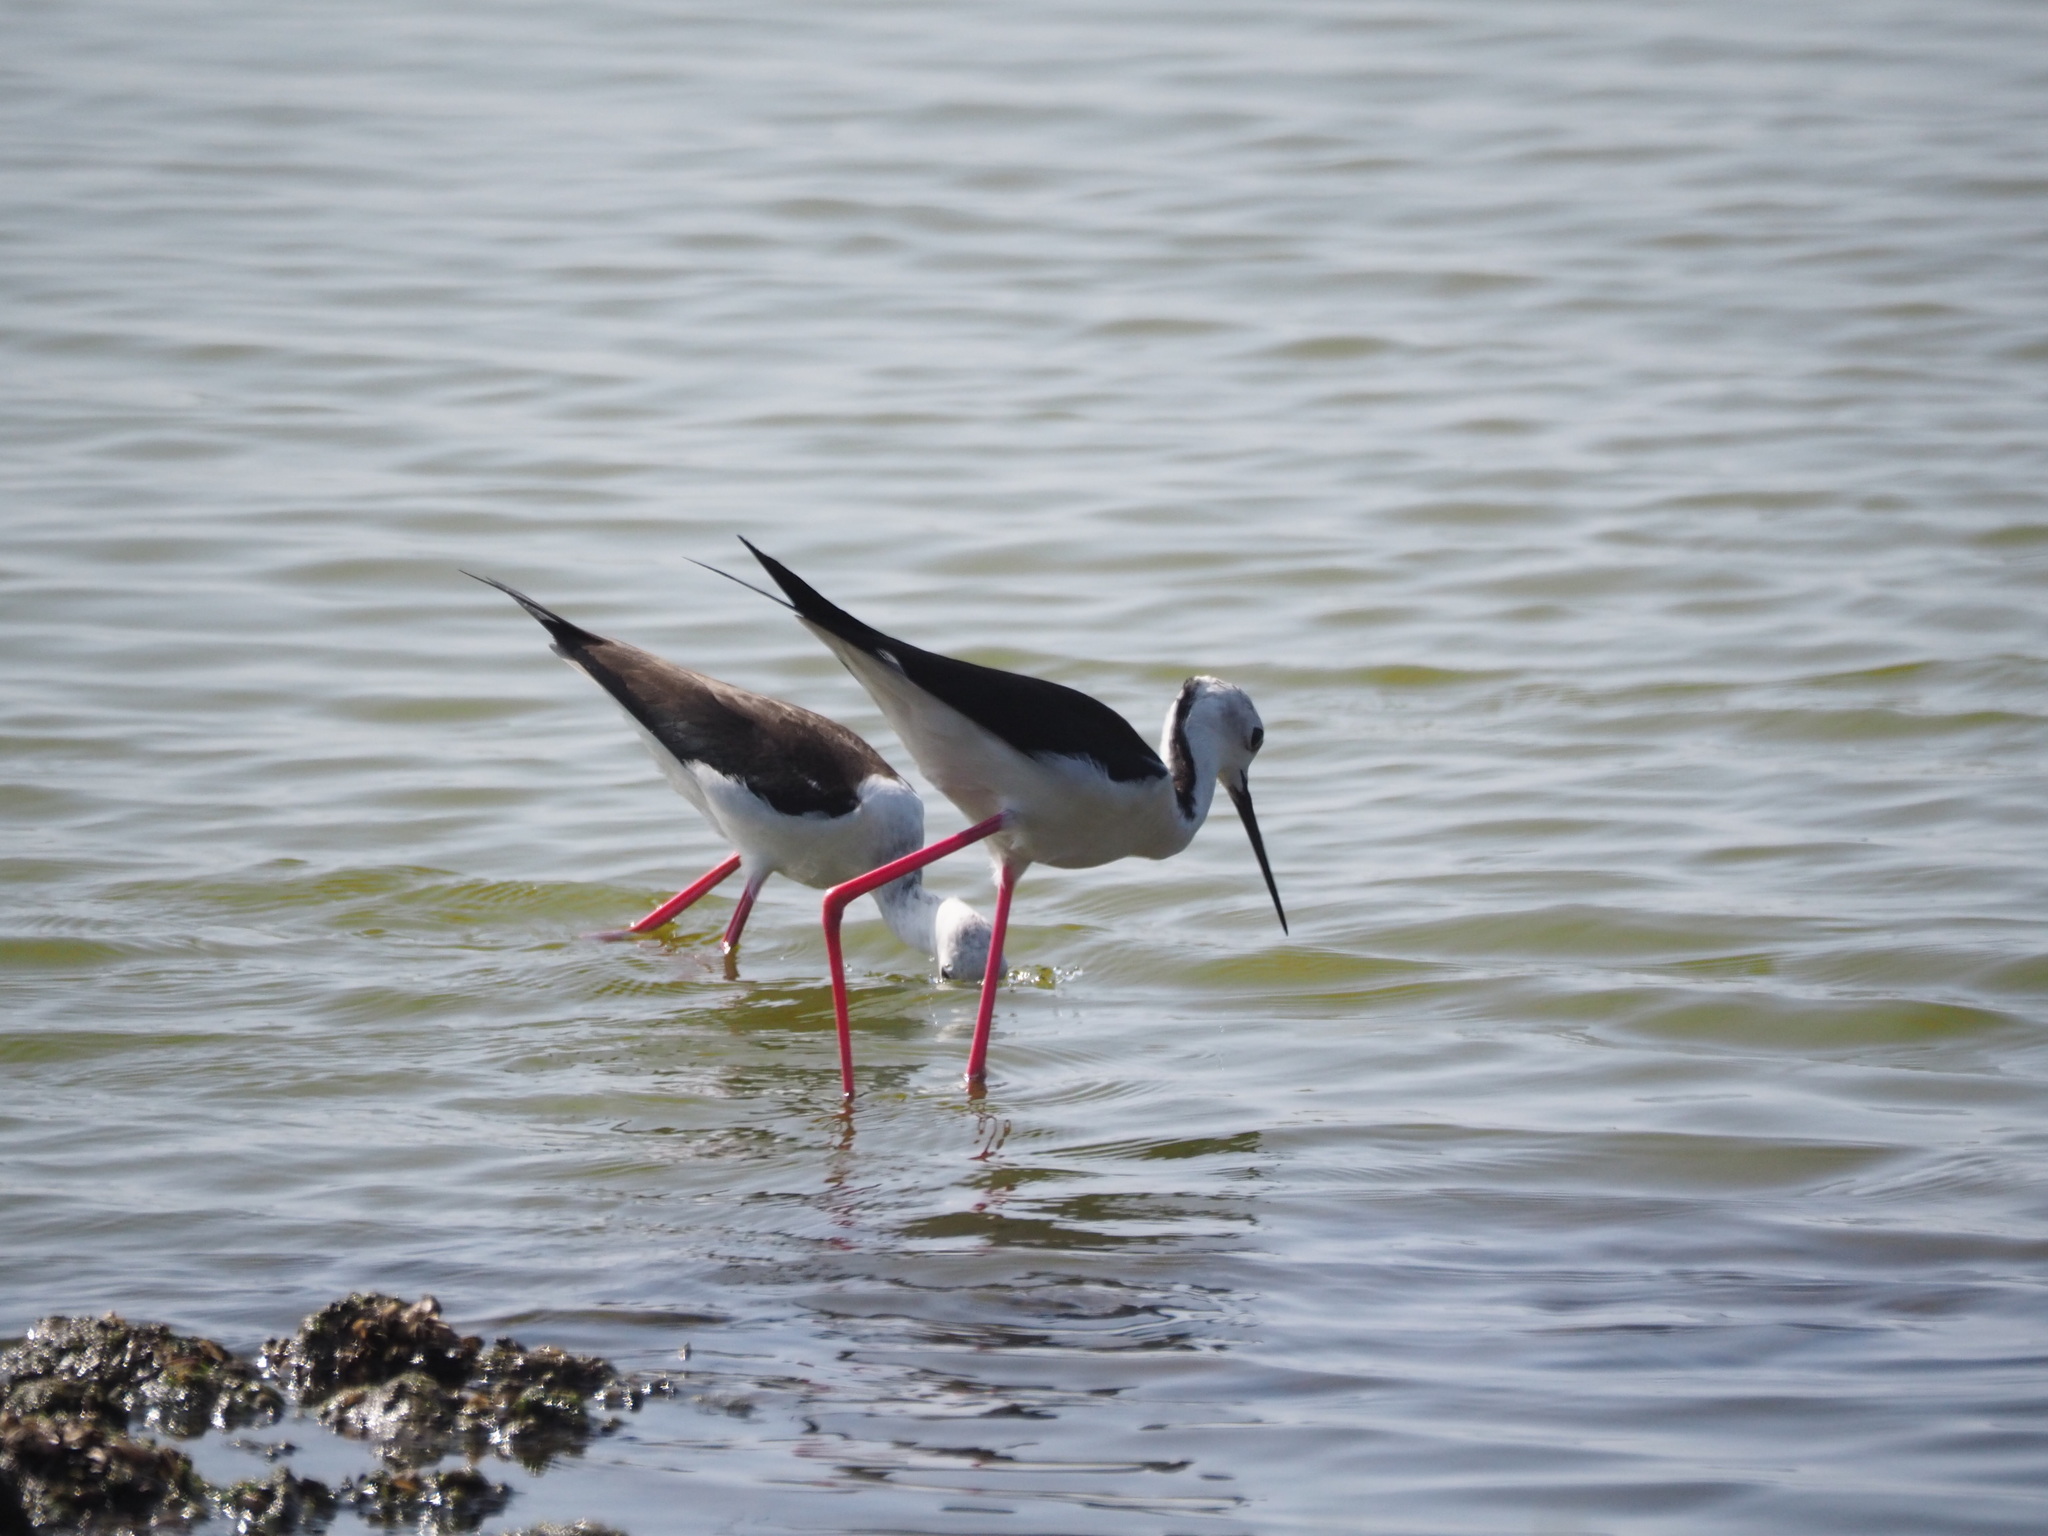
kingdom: Animalia
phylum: Chordata
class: Aves
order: Charadriiformes
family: Recurvirostridae
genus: Himantopus
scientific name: Himantopus himantopus
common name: Black-winged stilt
